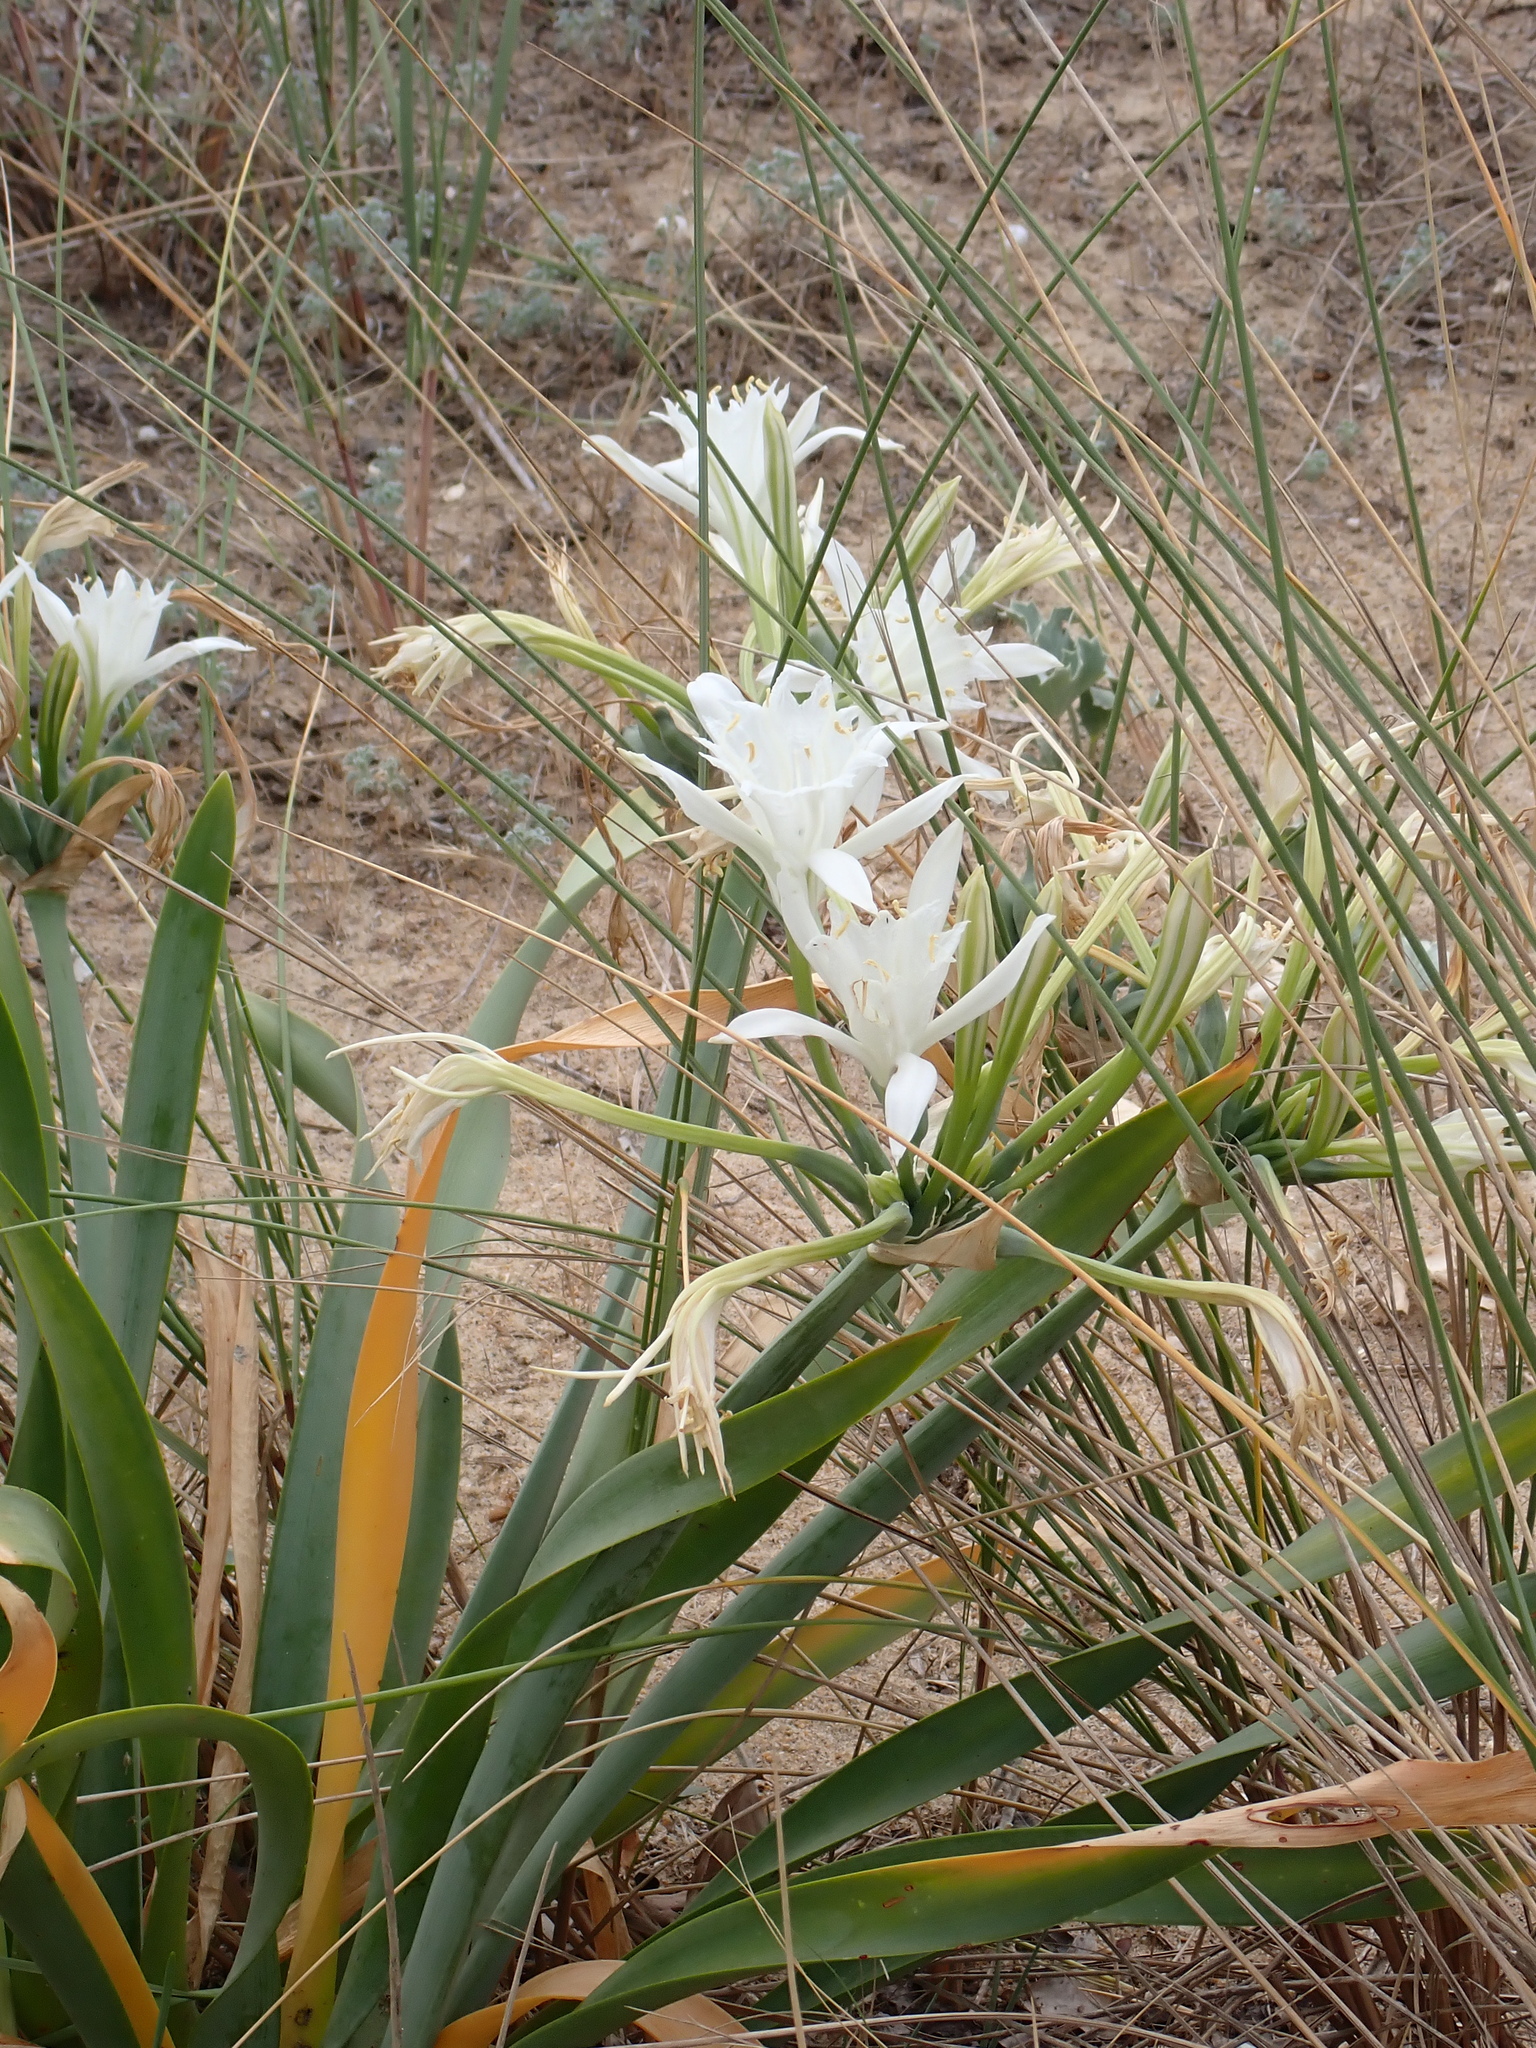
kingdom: Plantae
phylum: Tracheophyta
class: Liliopsida
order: Asparagales
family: Amaryllidaceae
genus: Pancratium
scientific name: Pancratium maritimum
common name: Sea-daffodil
